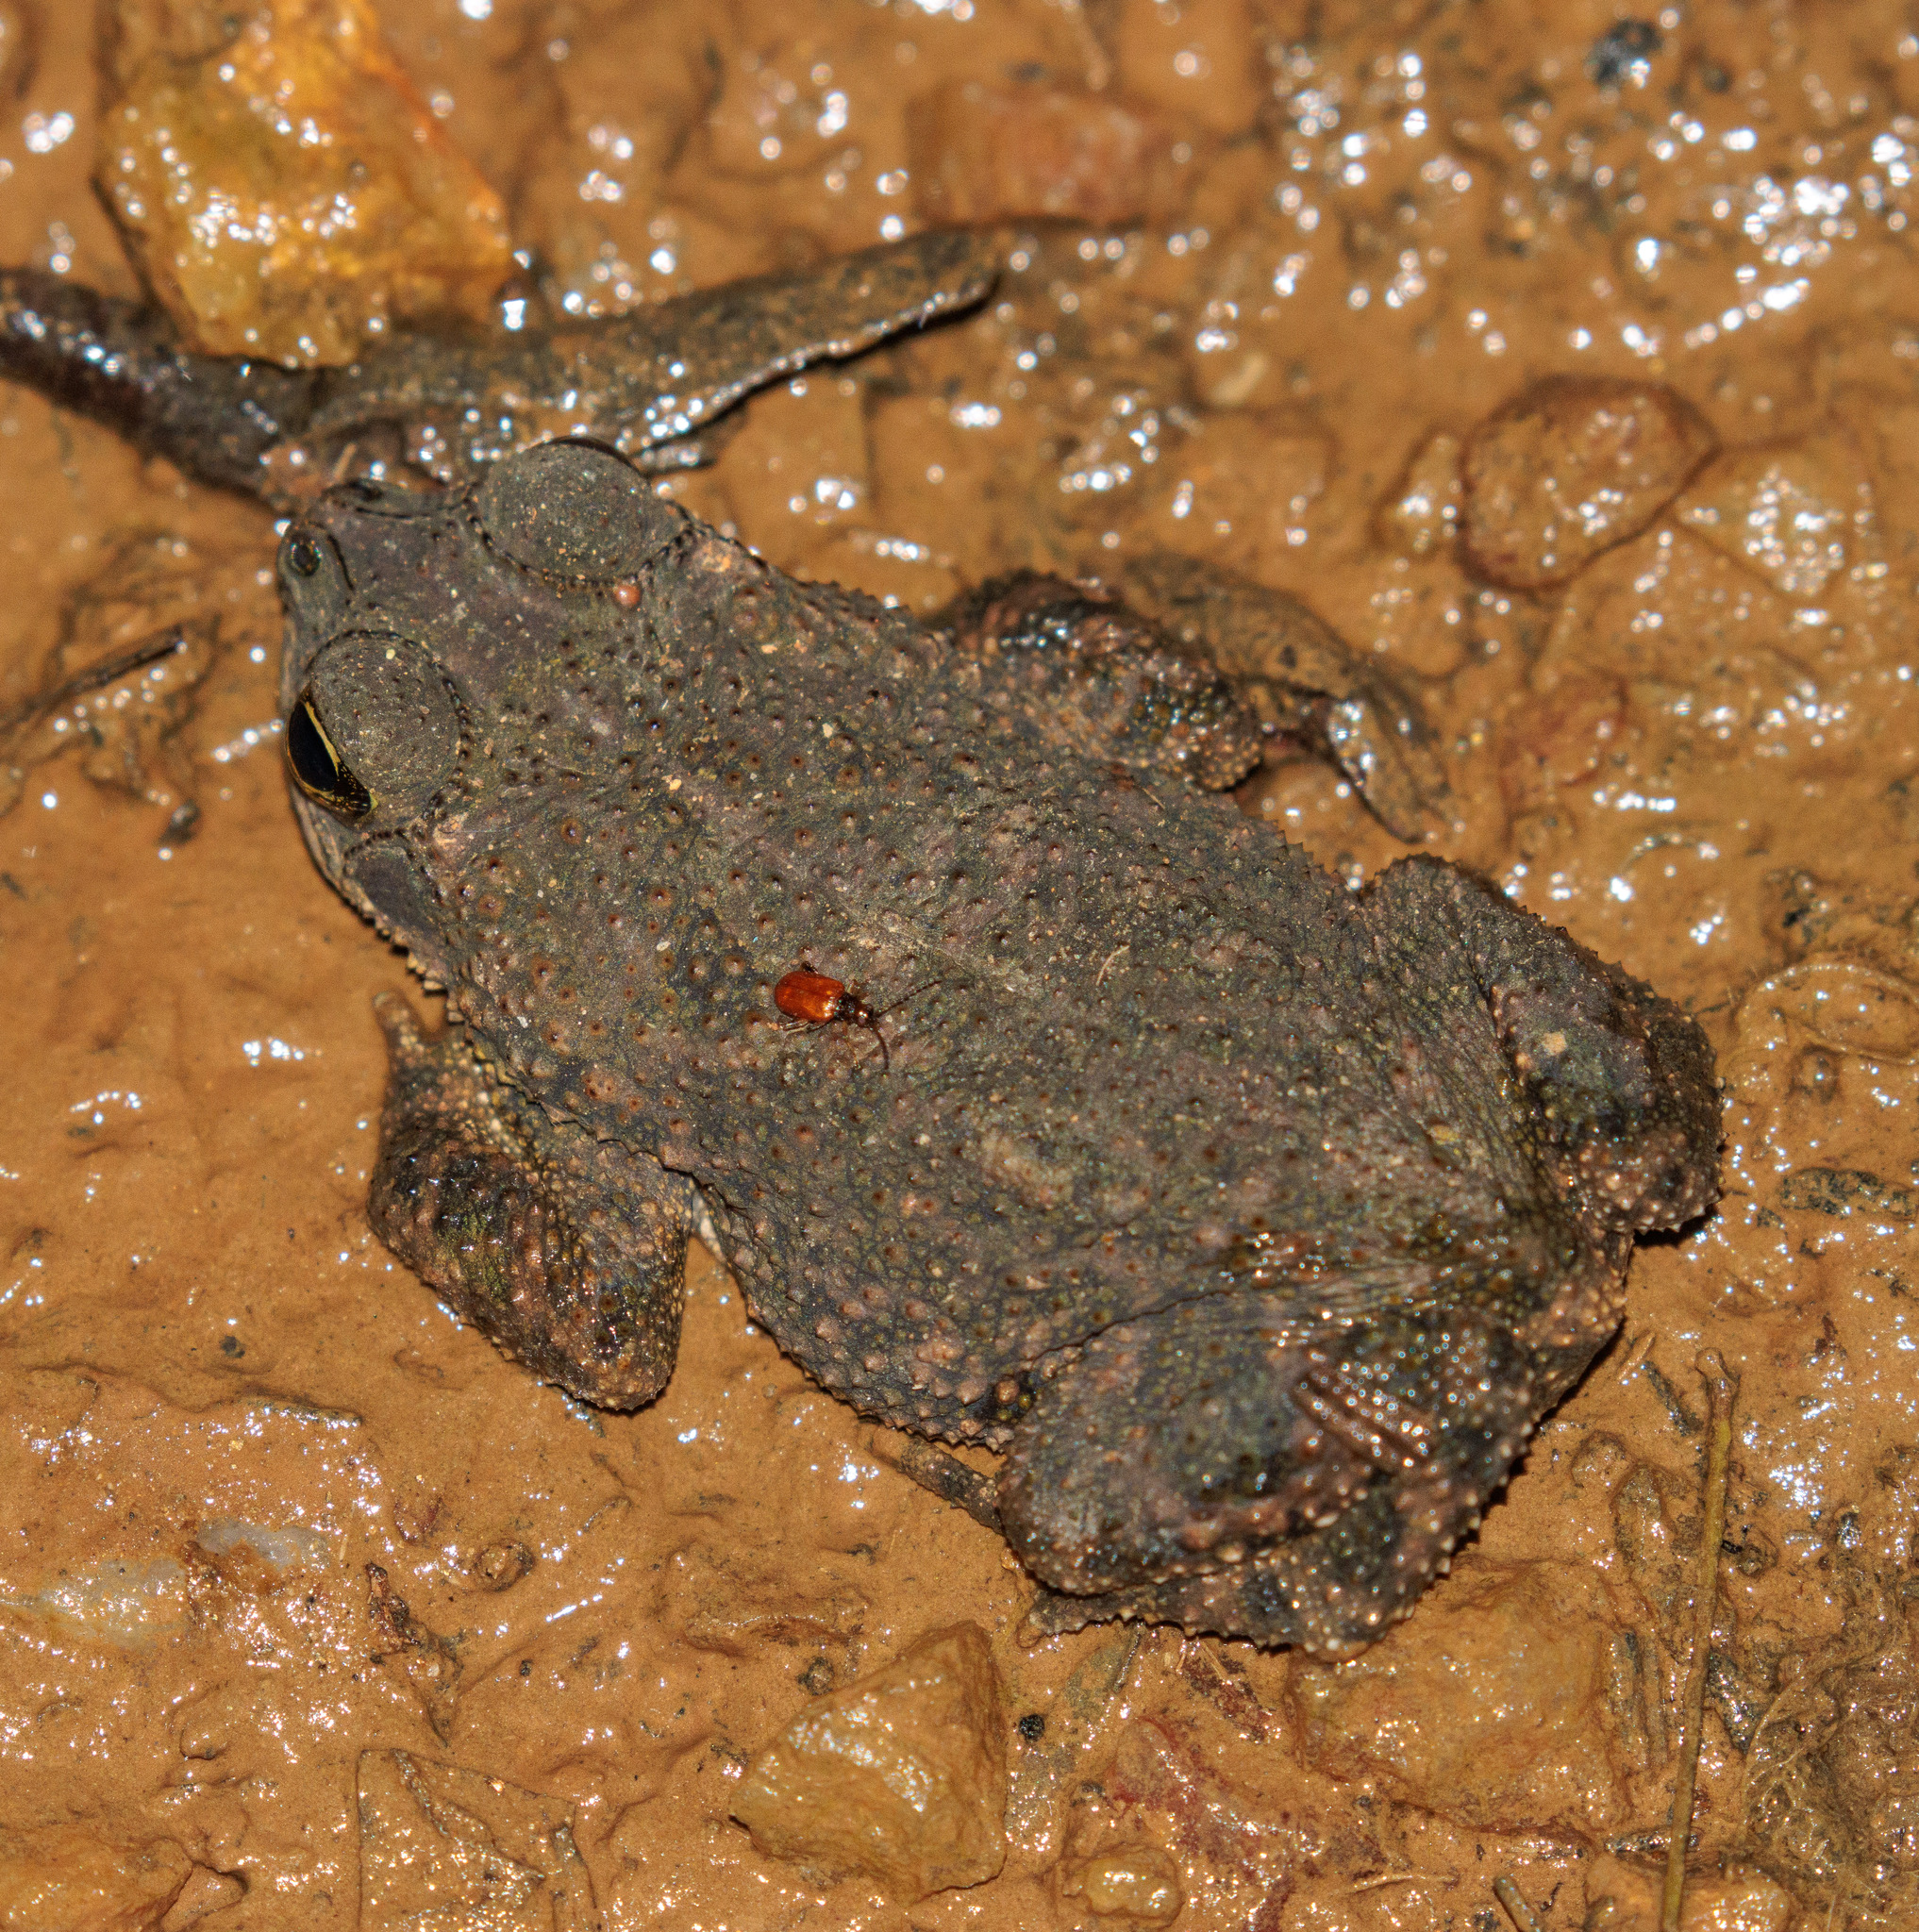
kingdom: Animalia
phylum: Chordata
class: Amphibia
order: Anura
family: Bufonidae
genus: Rhinella
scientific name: Rhinella granulosa
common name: Common lesser toad
